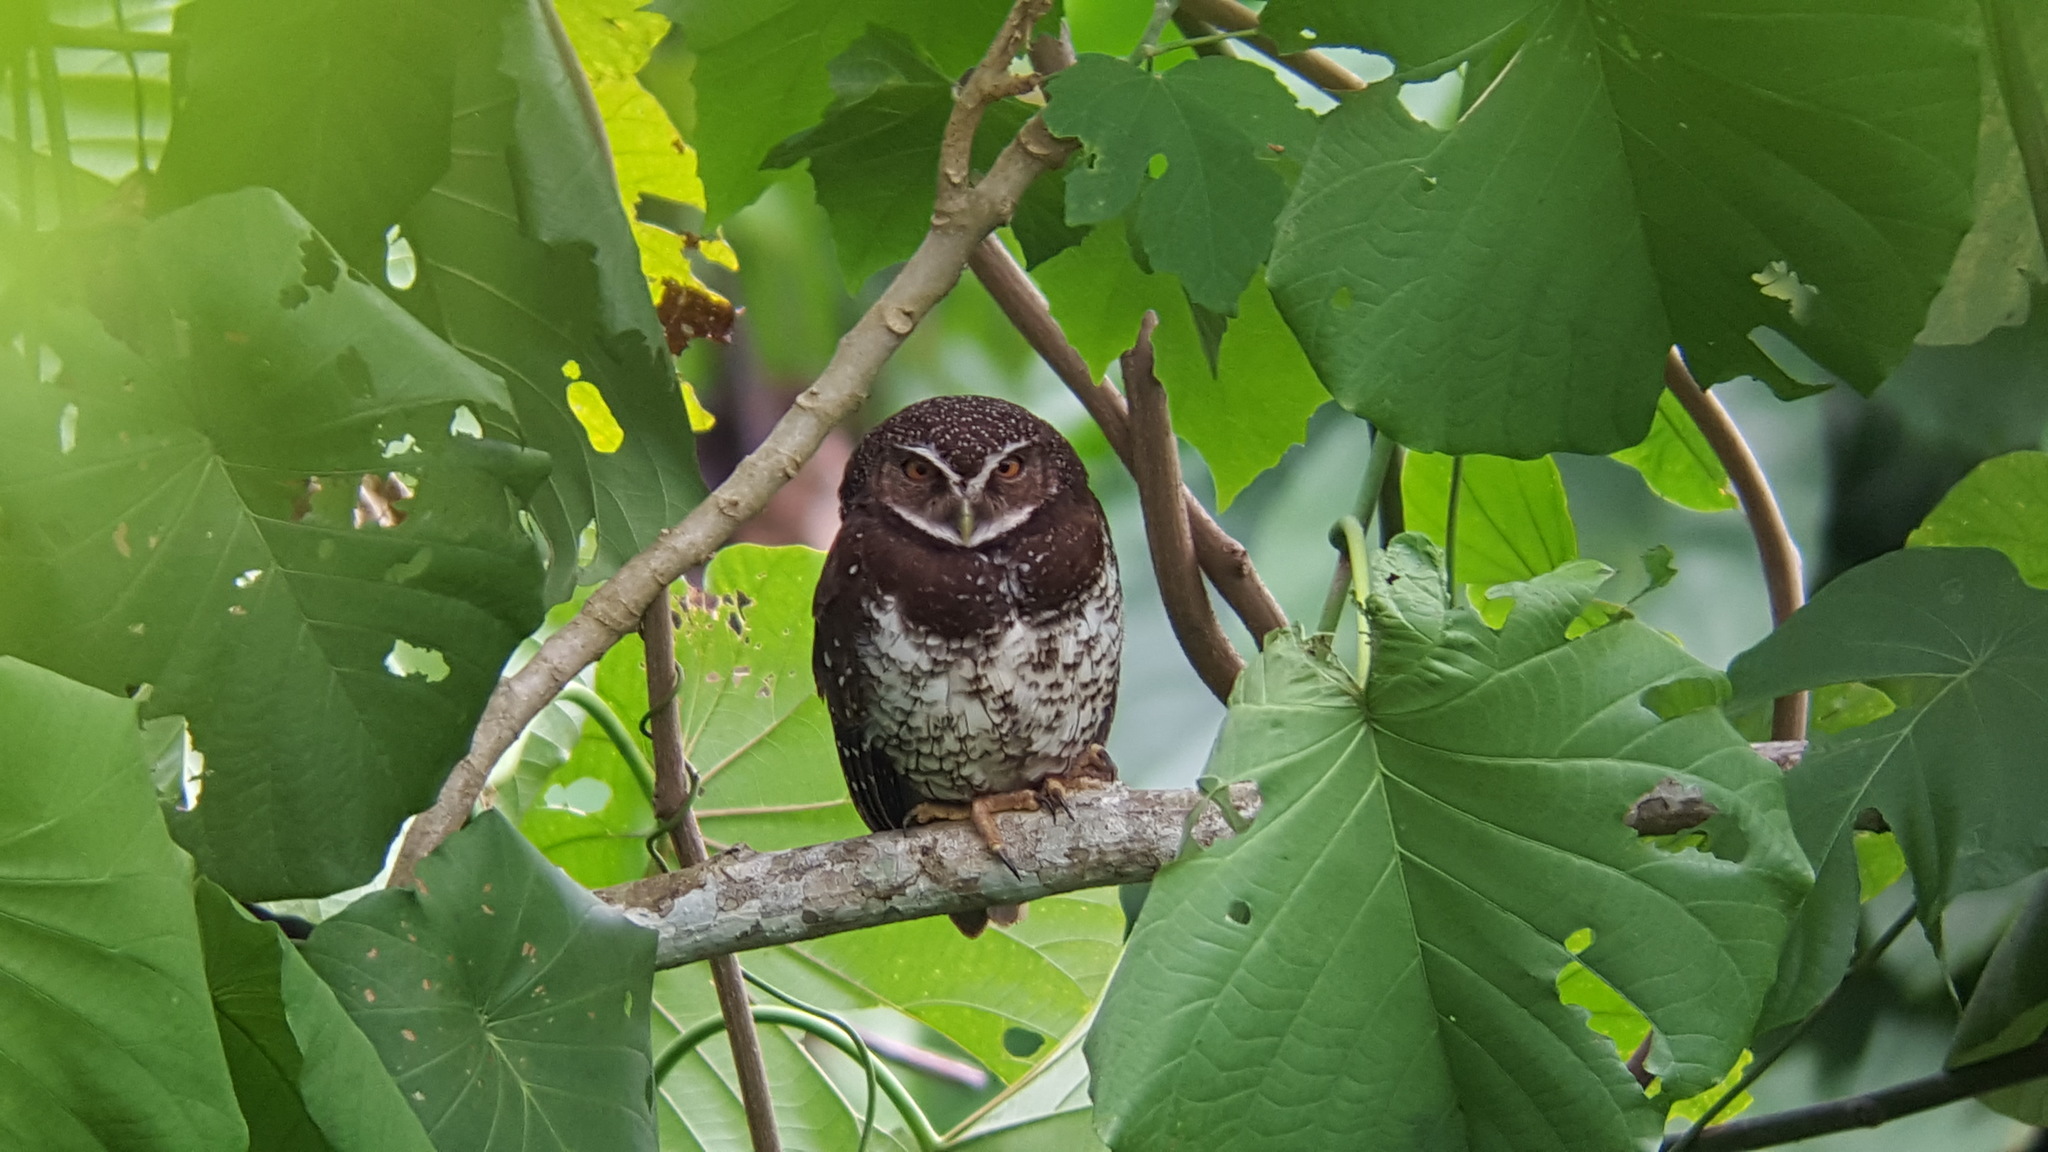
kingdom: Animalia
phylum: Chordata
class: Aves
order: Strigiformes
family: Strigidae
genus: Ninox
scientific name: Ninox odiosa
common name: New britain boobook
